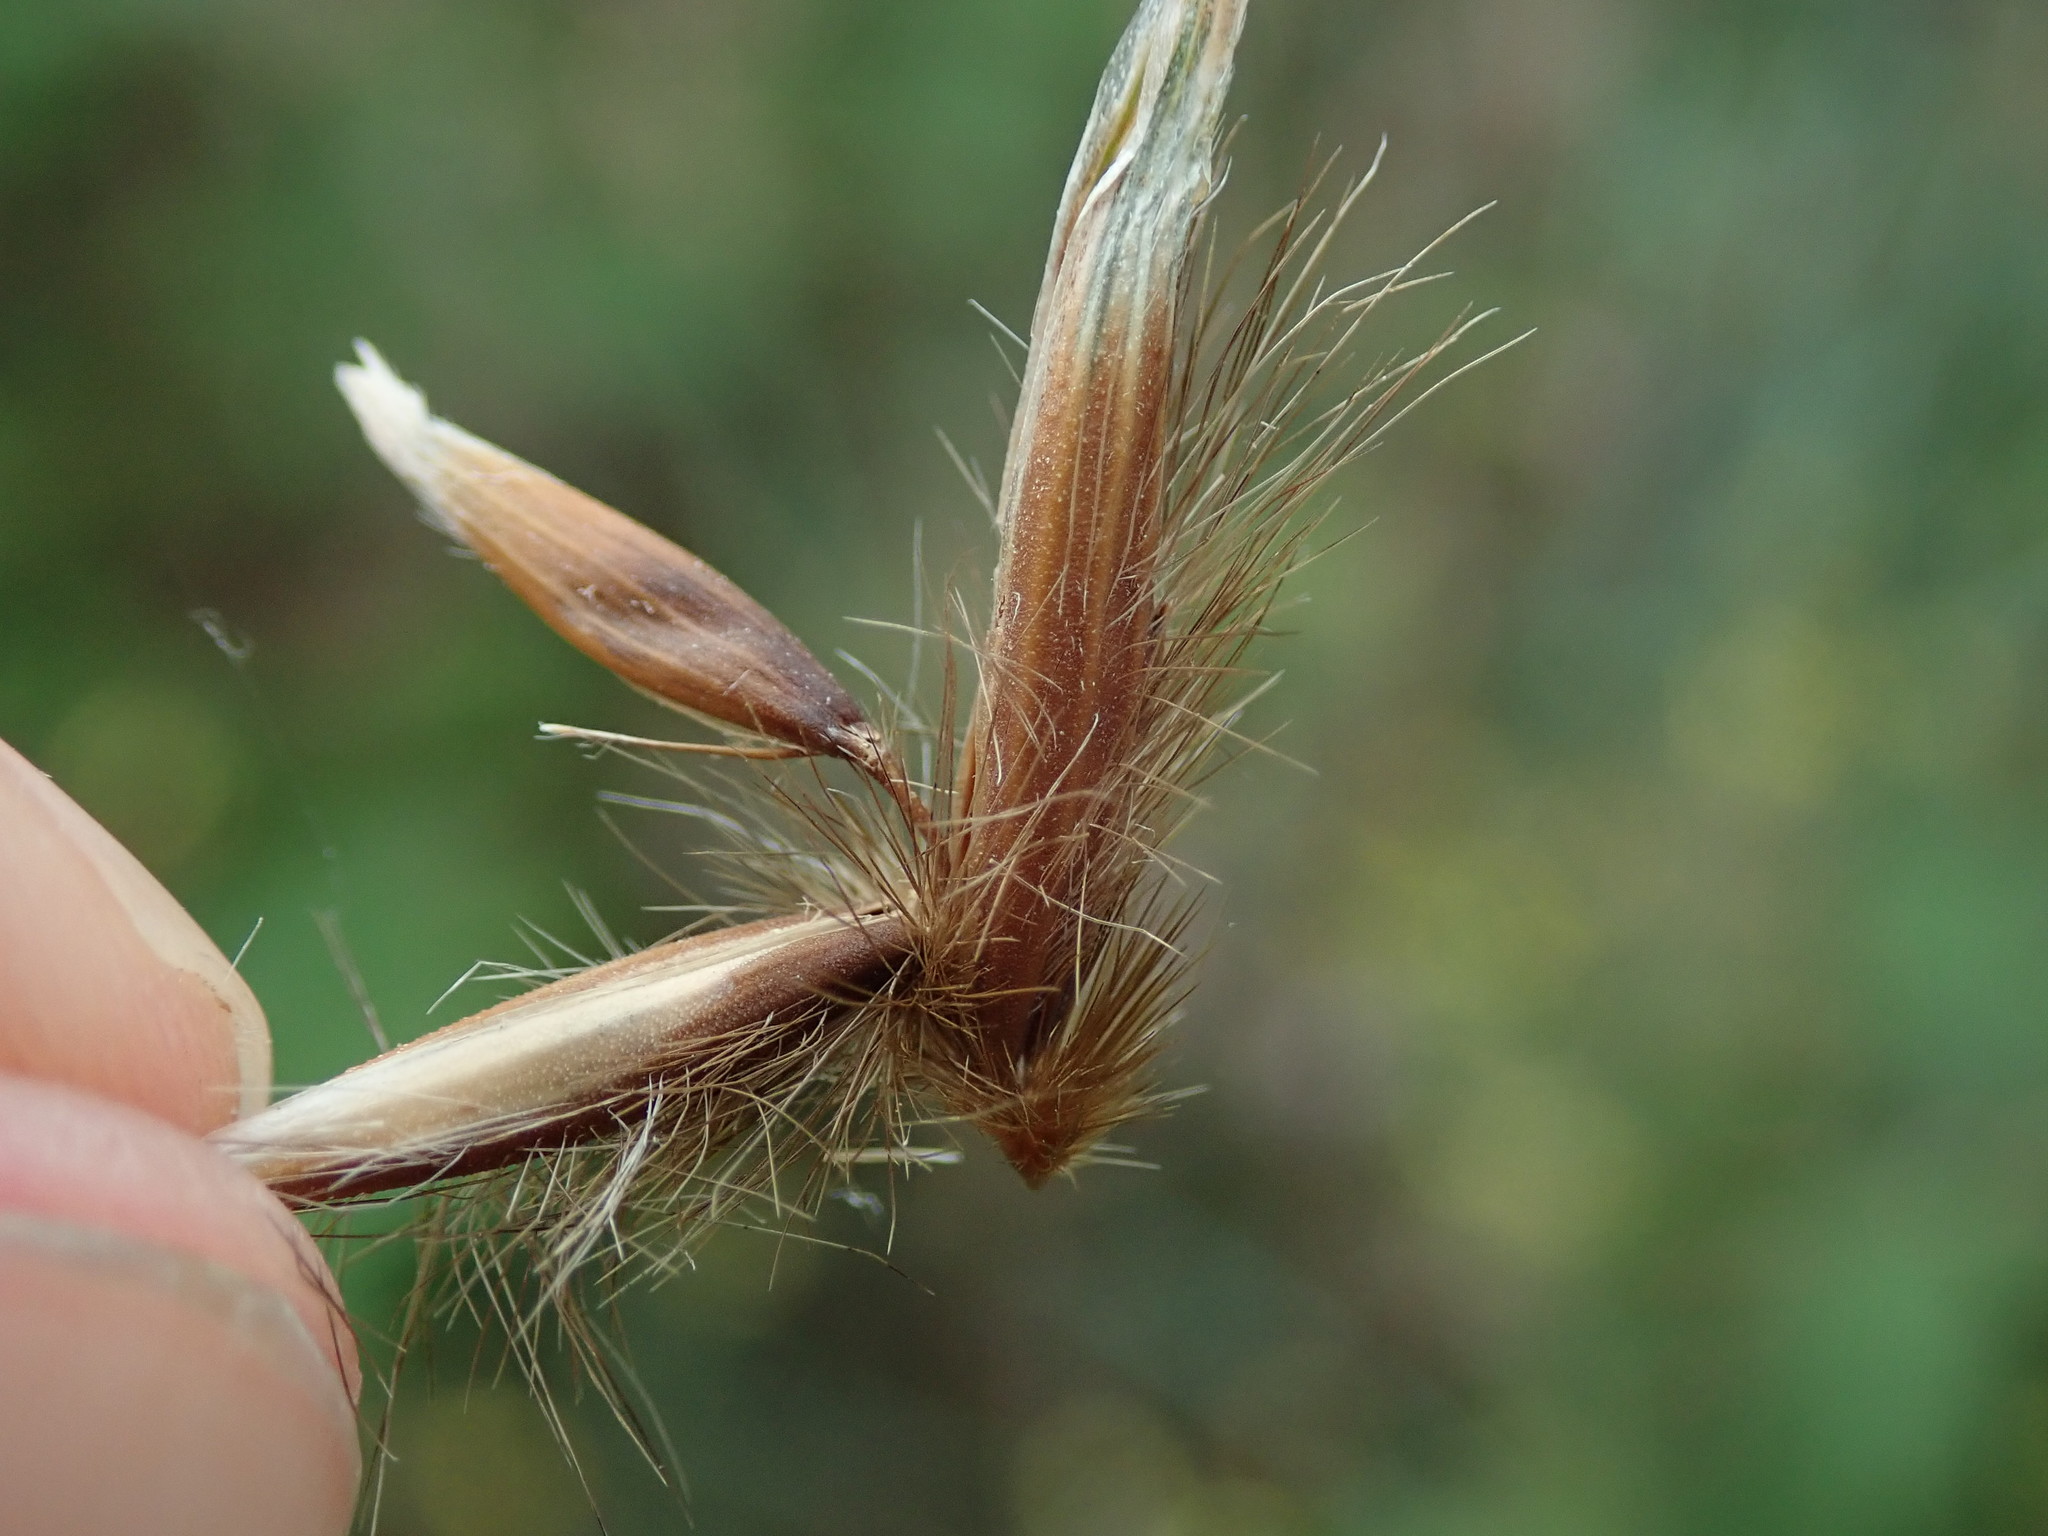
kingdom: Plantae
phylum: Tracheophyta
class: Liliopsida
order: Poales
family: Poaceae
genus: Avena
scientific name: Avena fatua
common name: Wild oat
